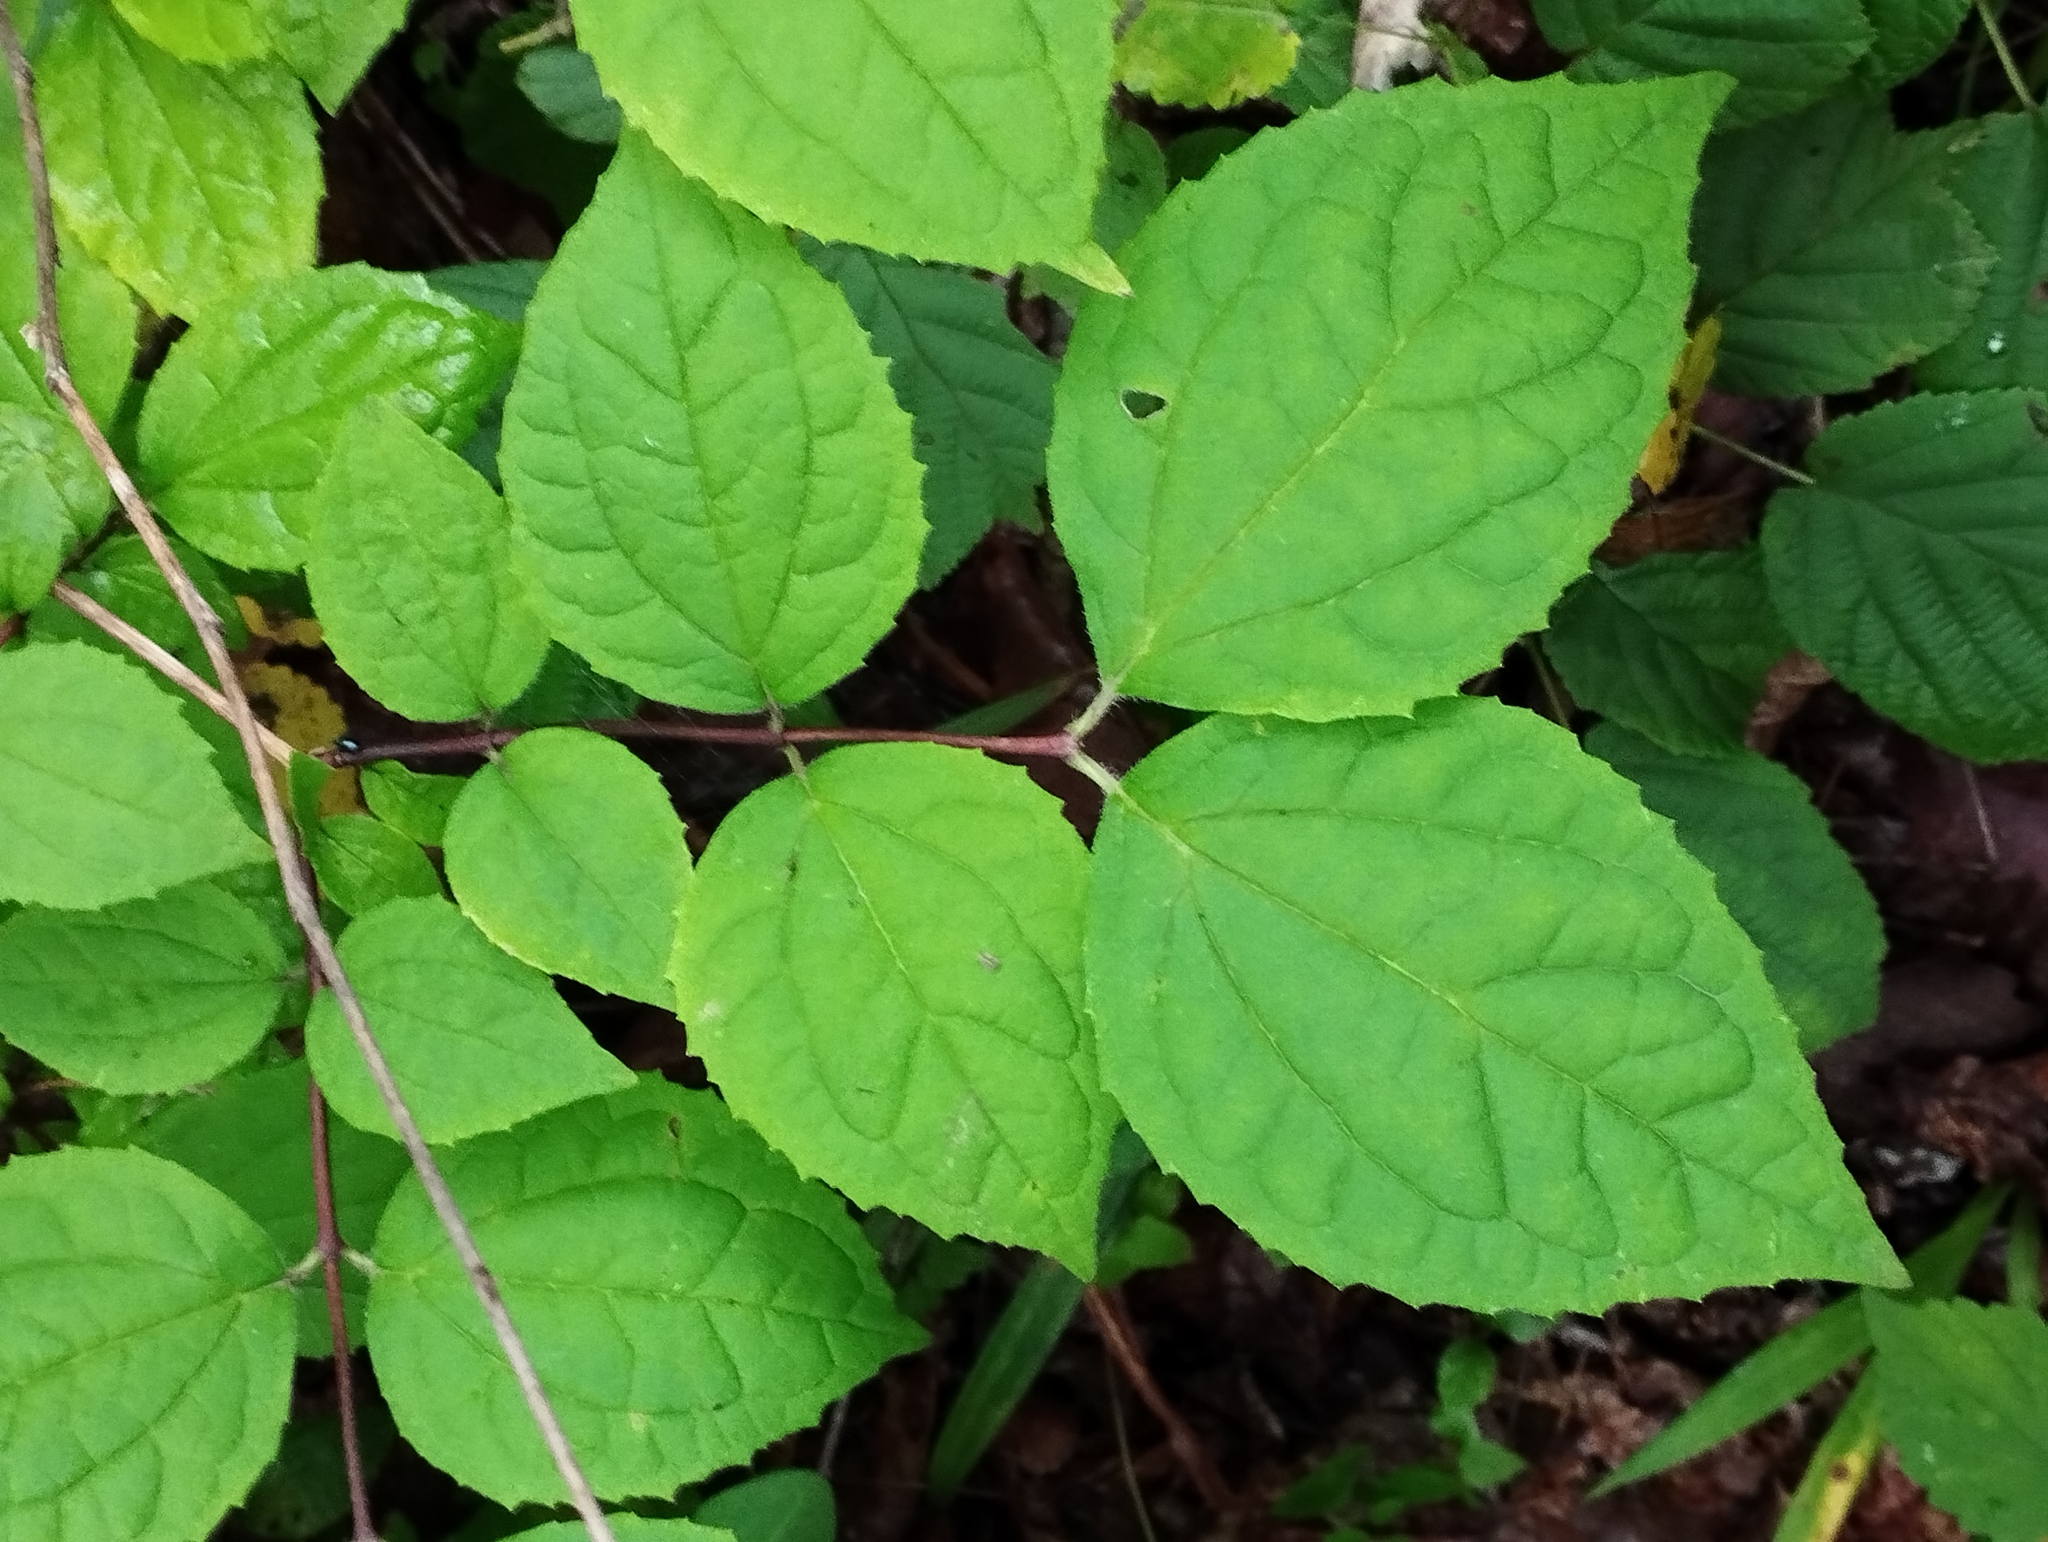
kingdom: Plantae
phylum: Tracheophyta
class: Magnoliopsida
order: Cornales
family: Hydrangeaceae
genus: Philadelphus
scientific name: Philadelphus tenuifolius
